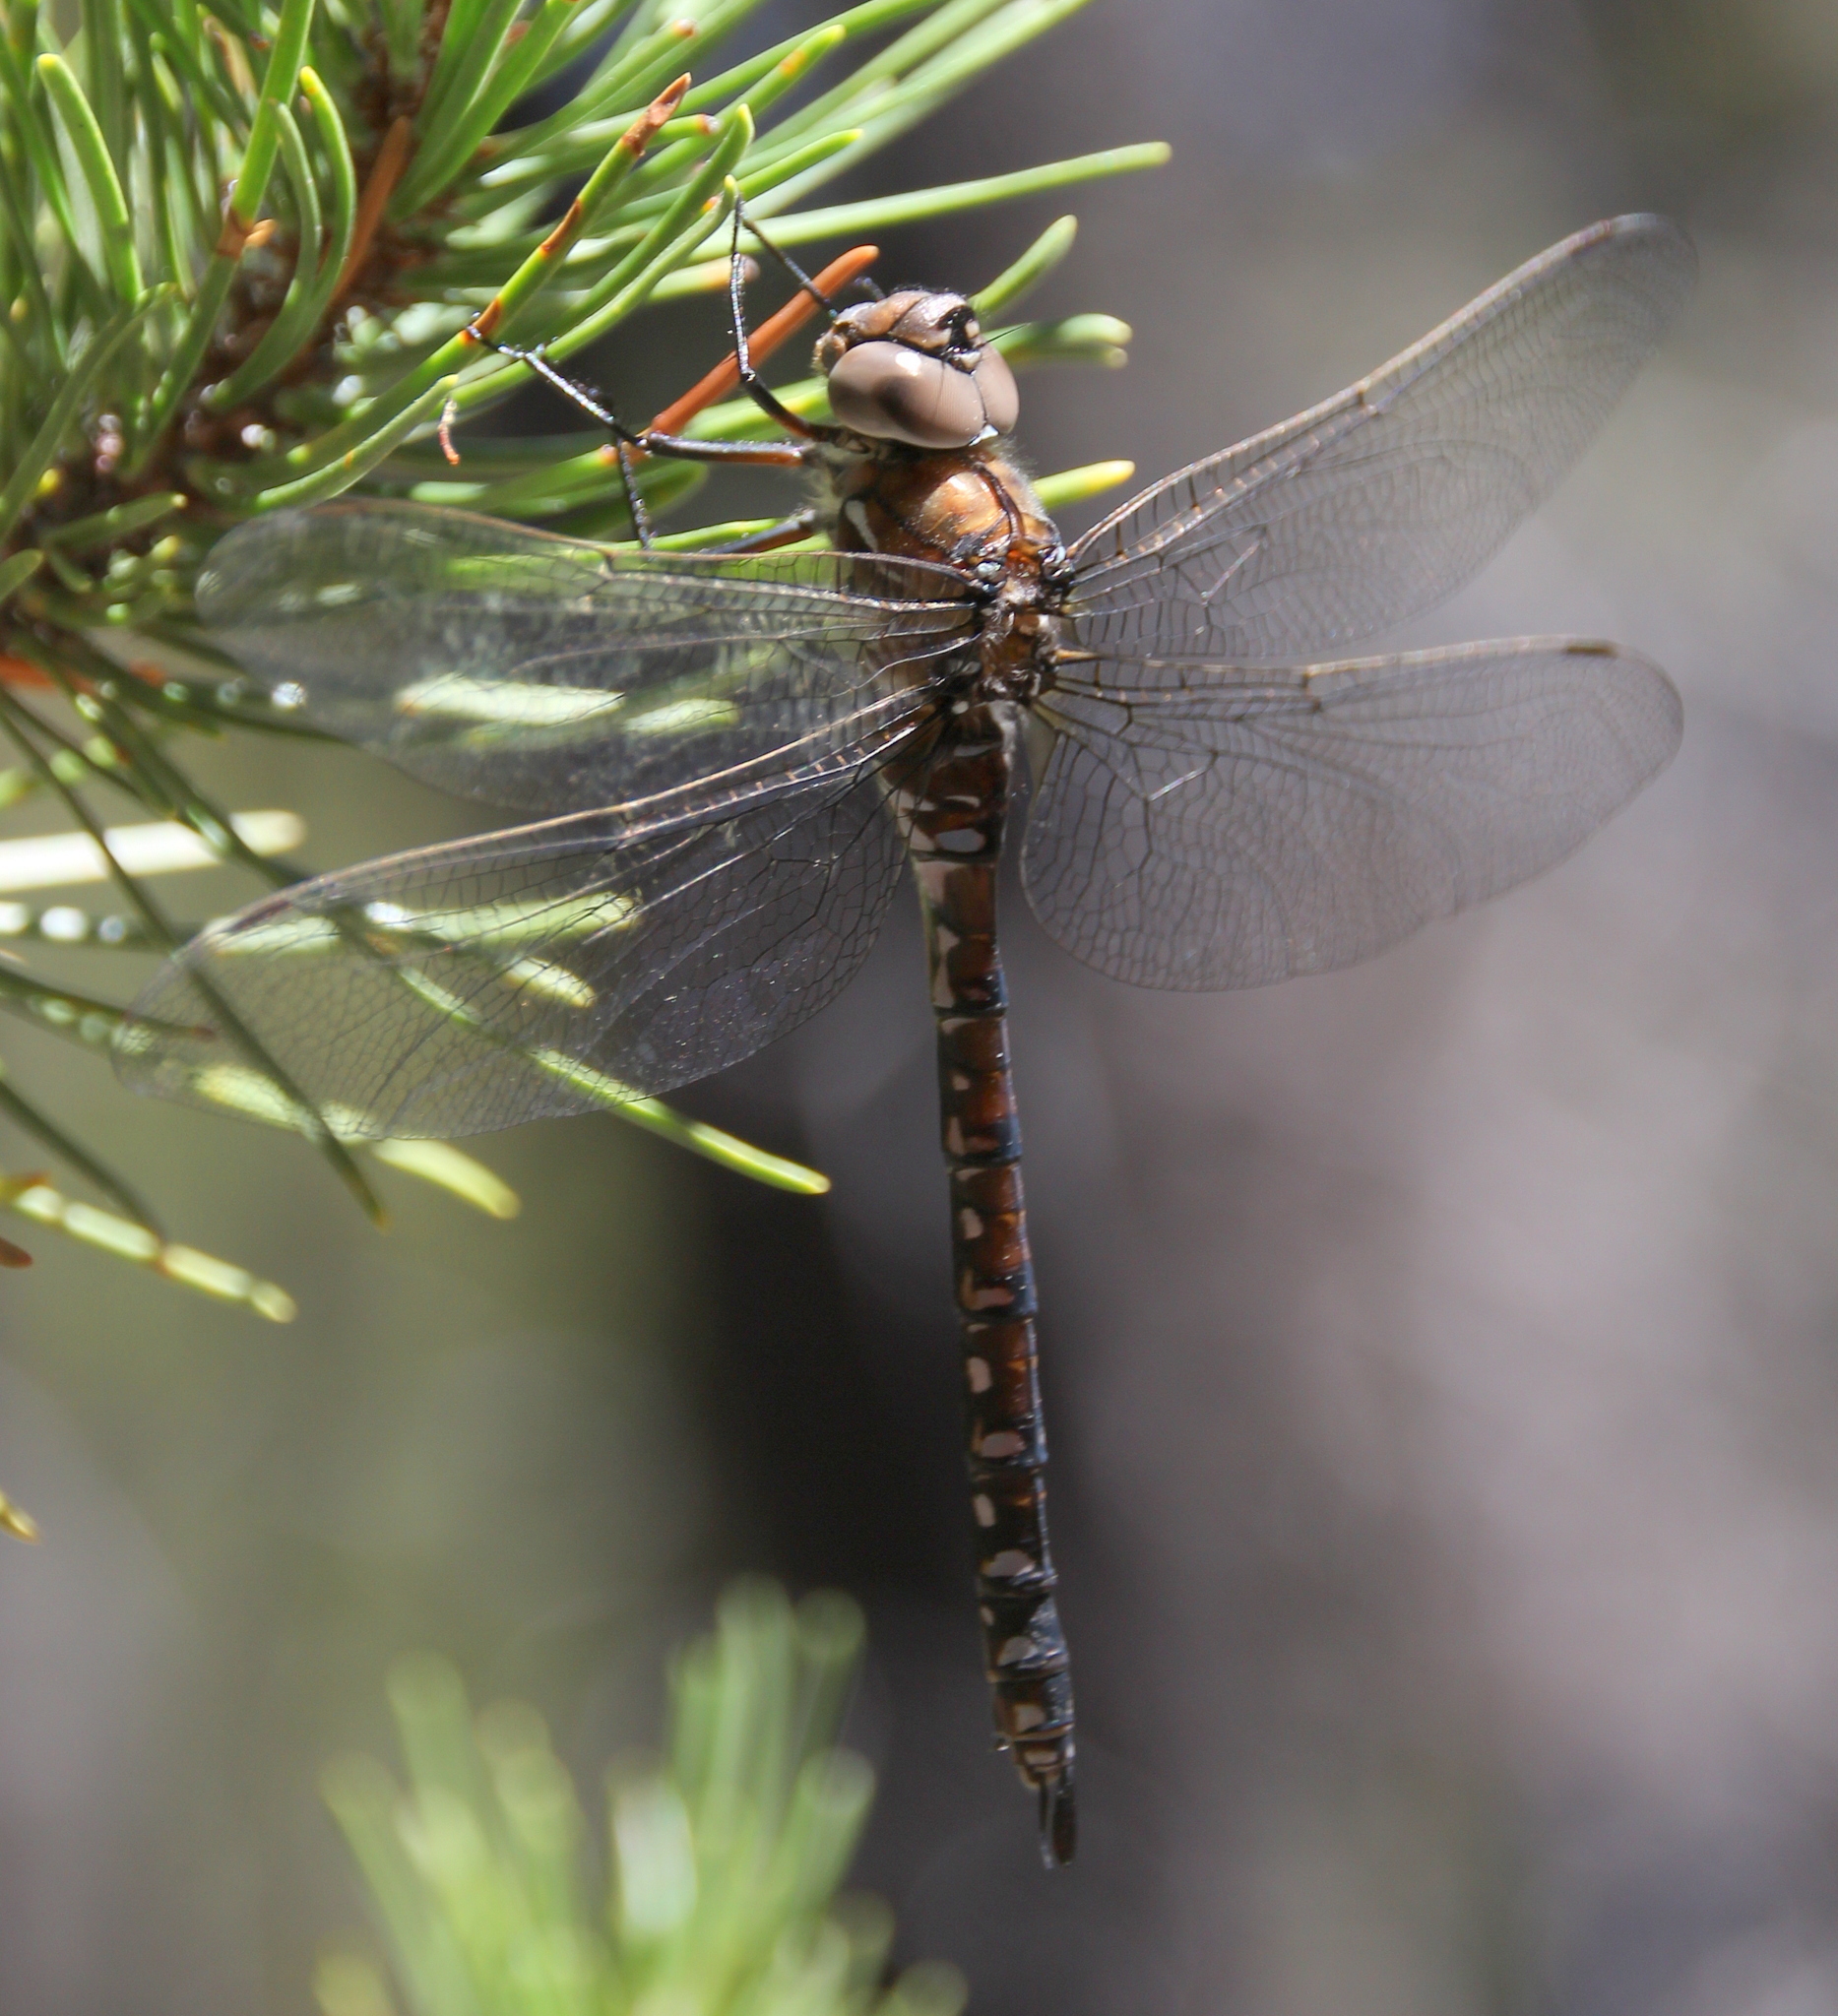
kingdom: Animalia
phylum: Arthropoda
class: Insecta
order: Odonata
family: Aeshnidae
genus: Aeshna
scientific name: Aeshna interrupta
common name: Variable darner
